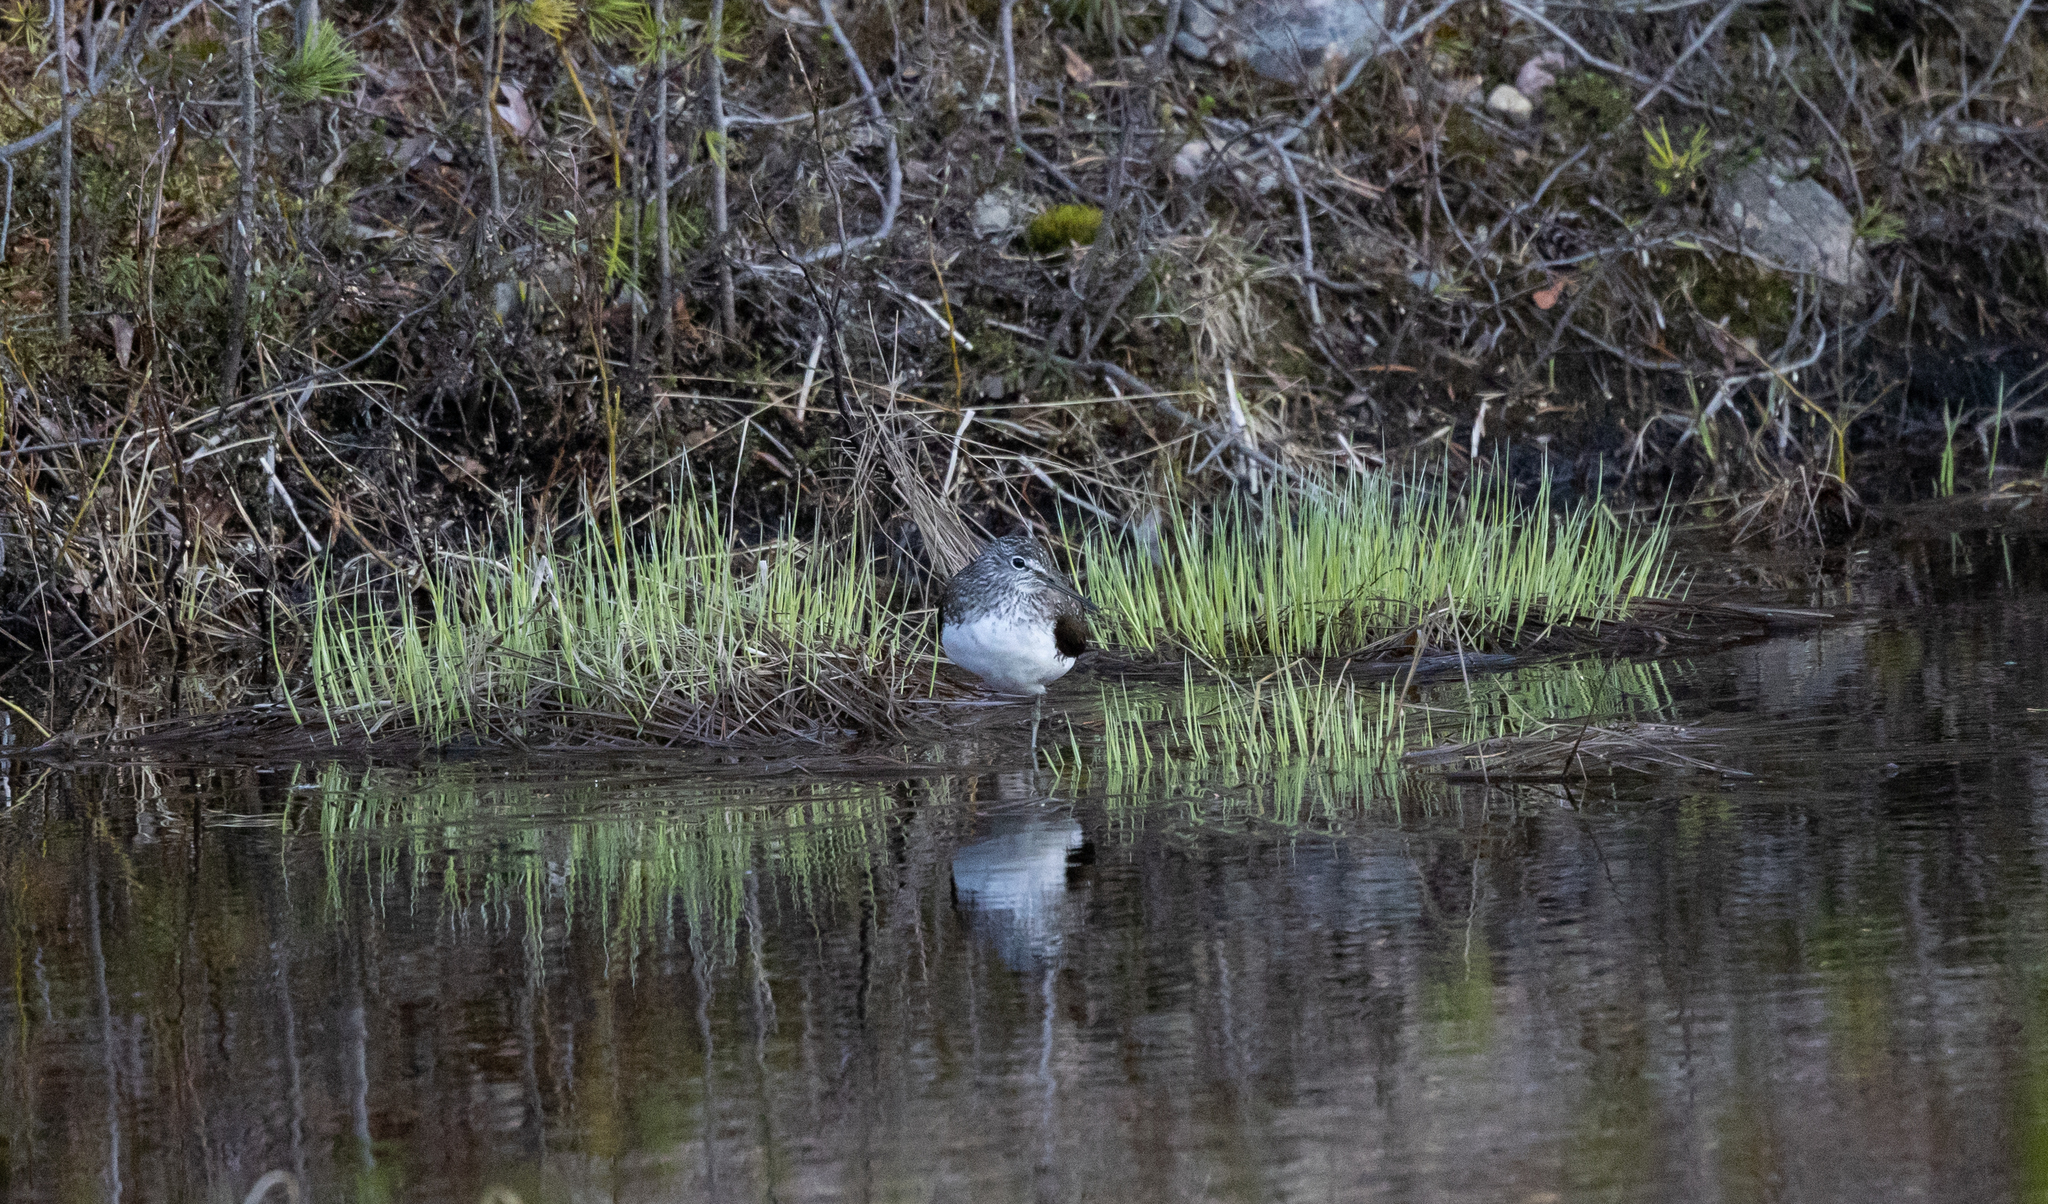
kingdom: Animalia
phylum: Chordata
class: Aves
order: Charadriiformes
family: Scolopacidae
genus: Tringa
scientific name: Tringa ochropus
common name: Green sandpiper
